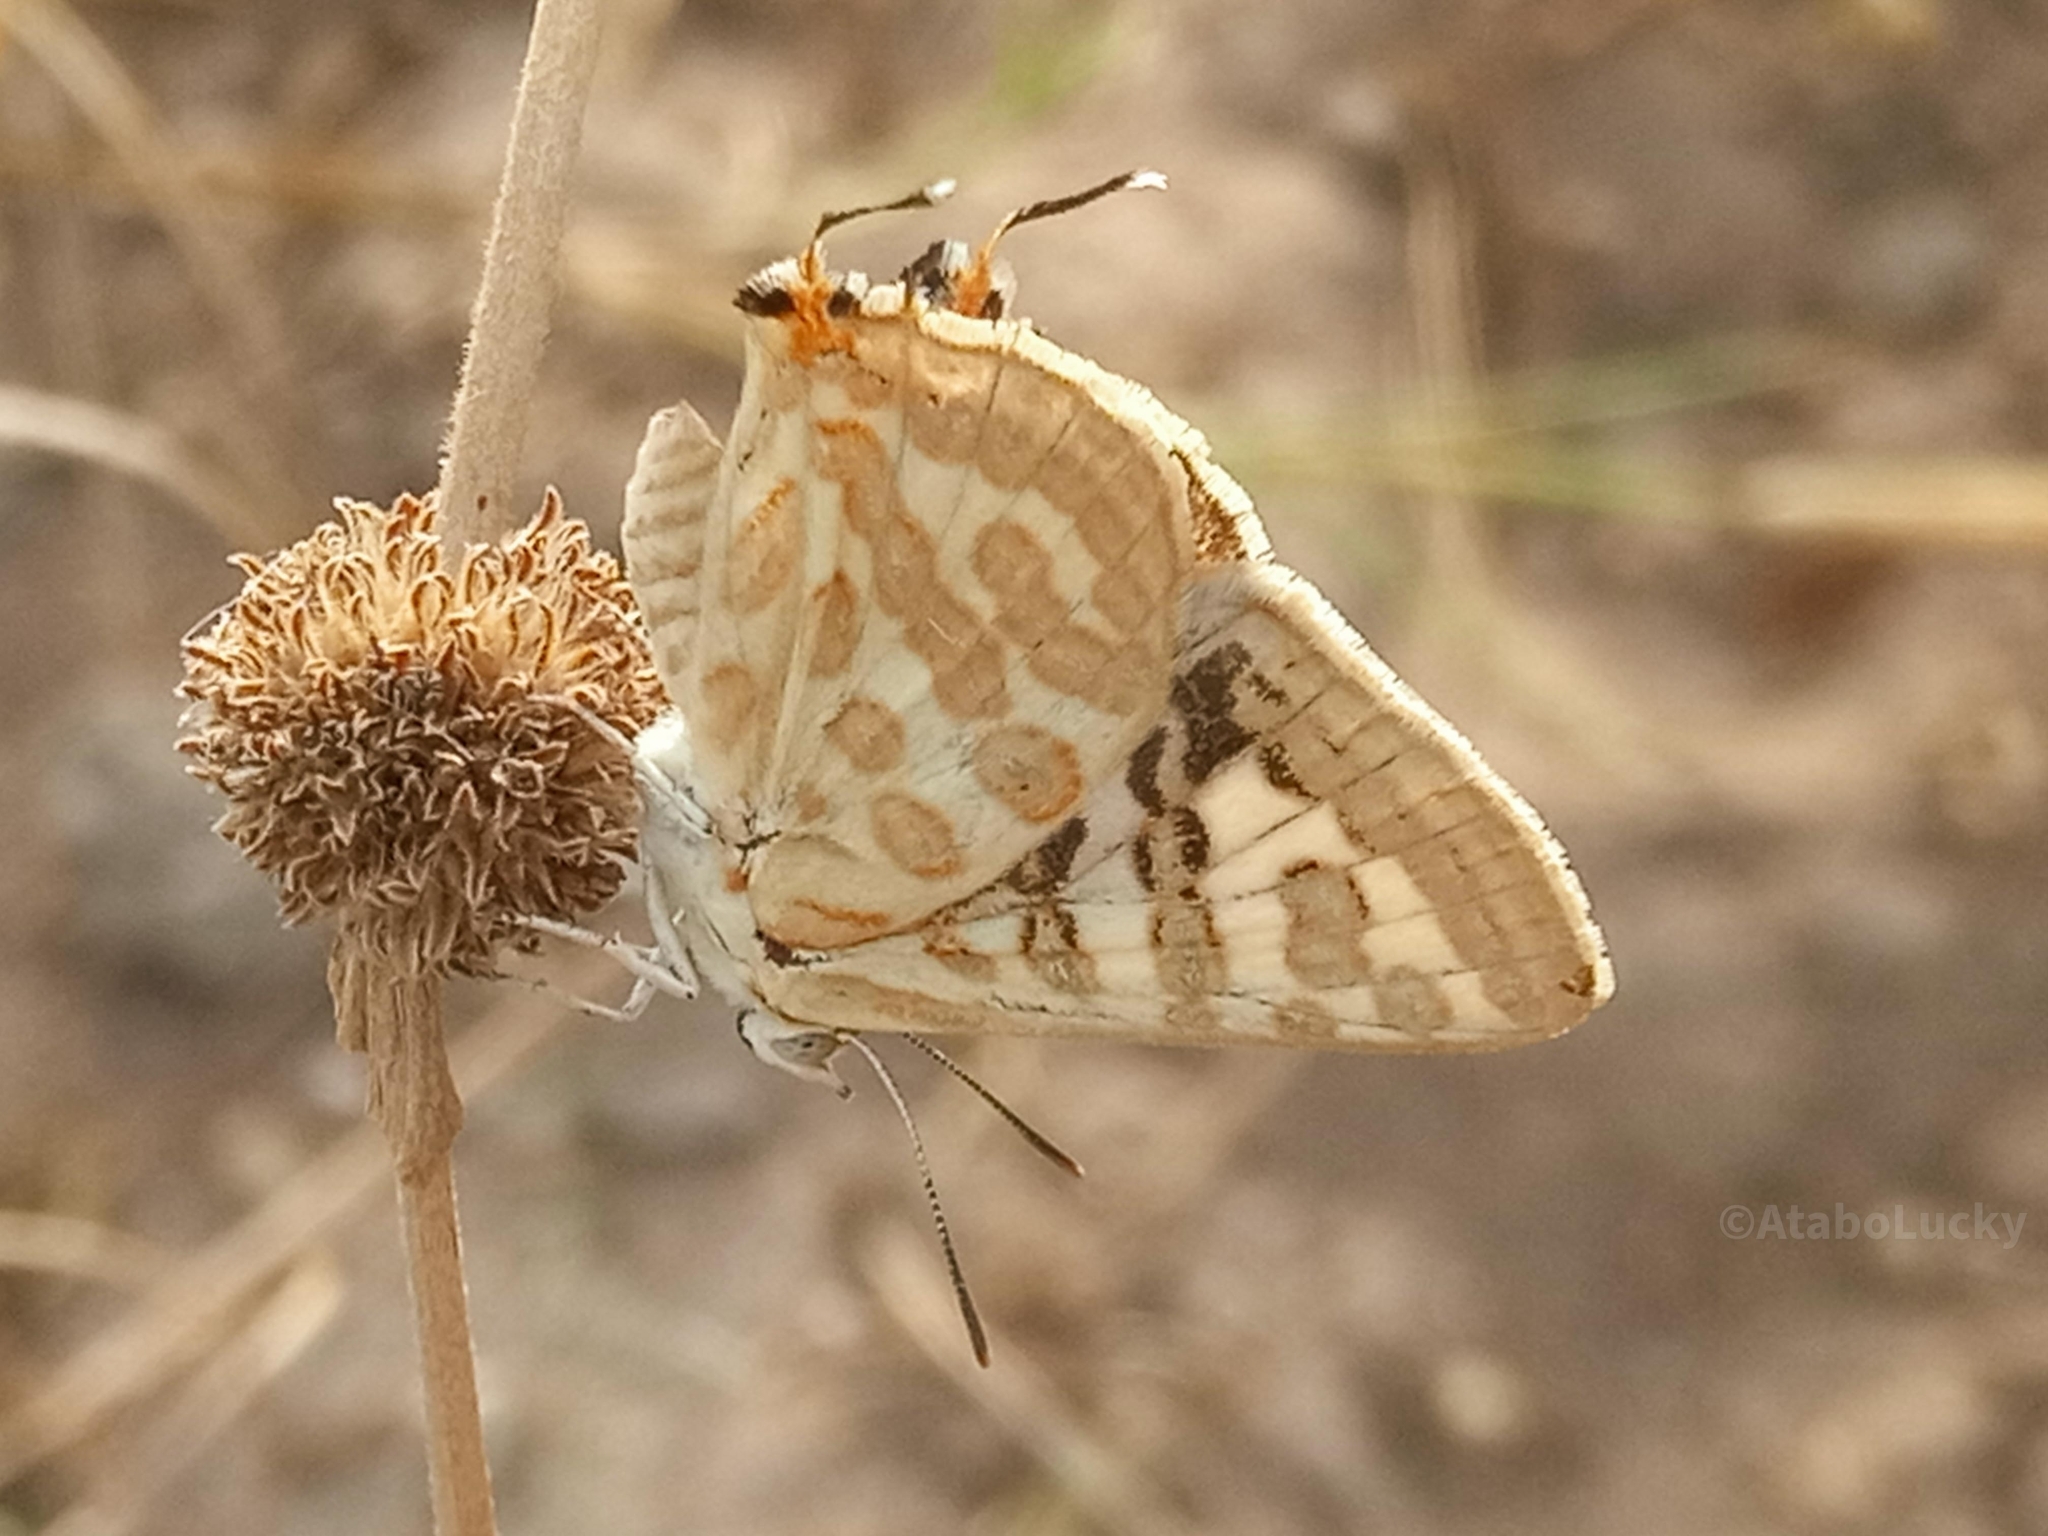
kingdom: Animalia
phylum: Arthropoda
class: Insecta
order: Lepidoptera
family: Lycaenidae
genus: Cigaritis
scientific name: Cigaritis
